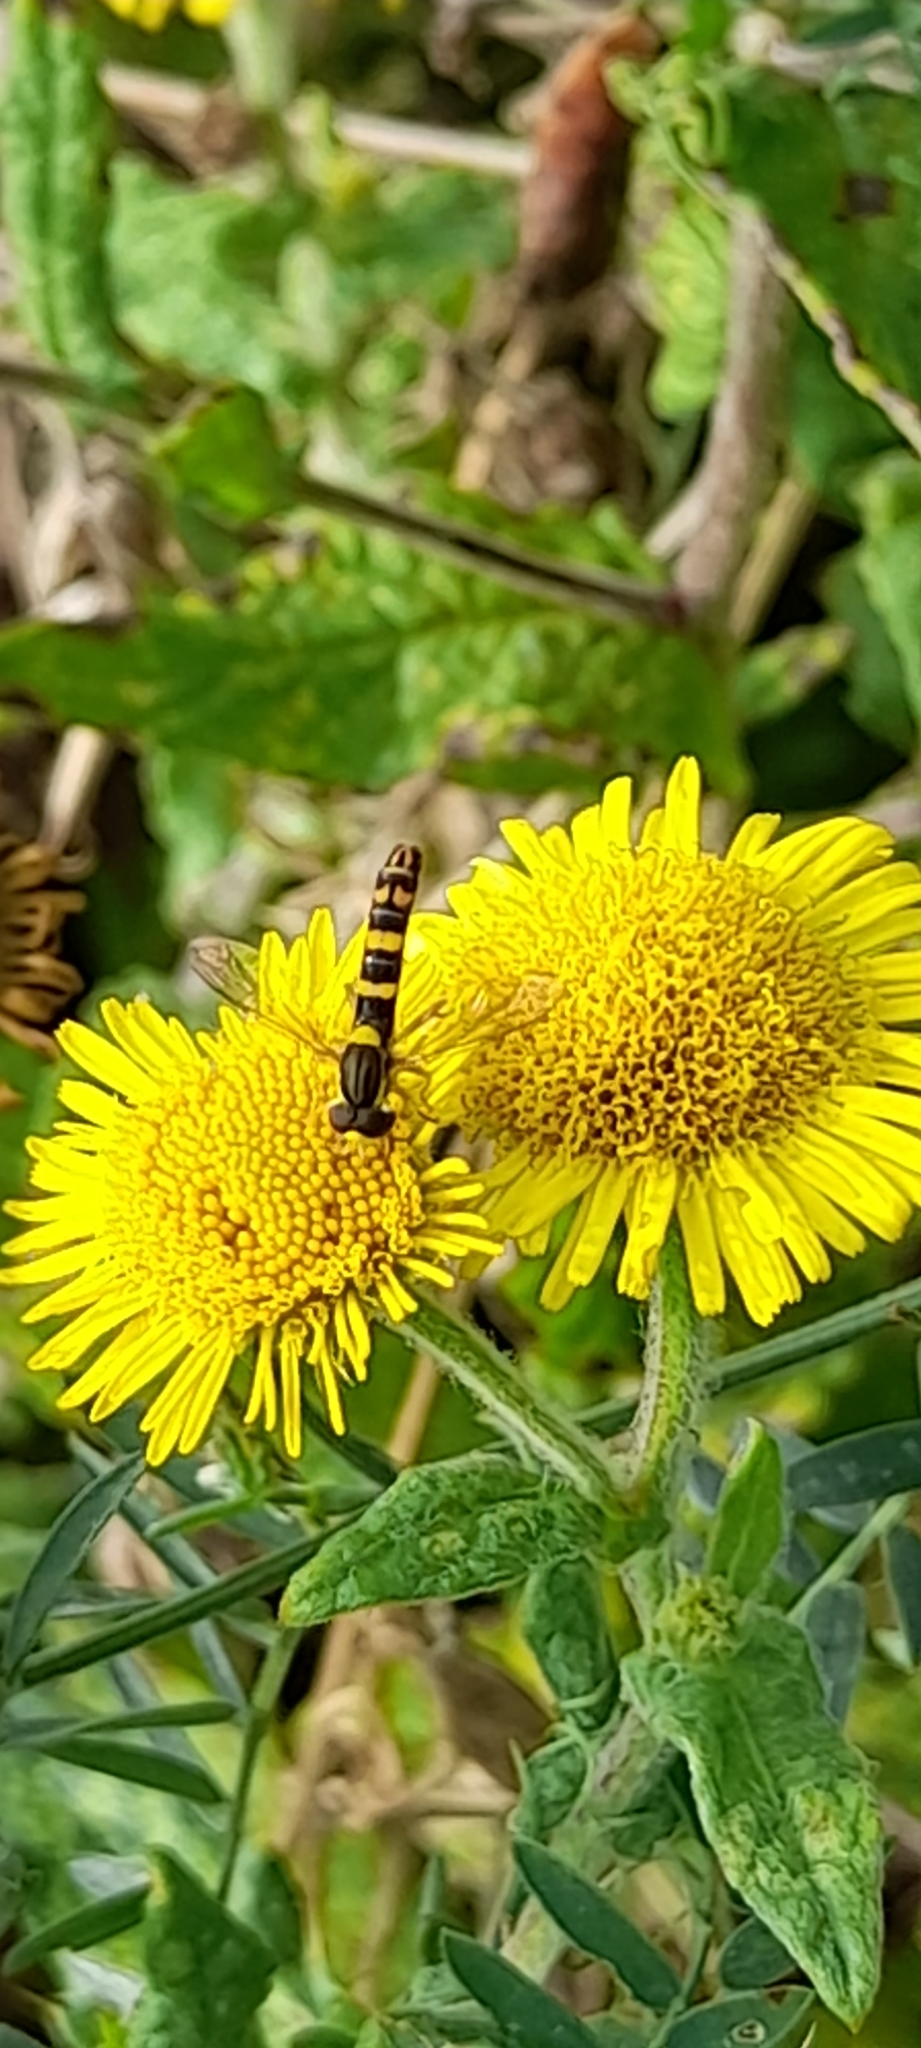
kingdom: Animalia
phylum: Arthropoda
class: Insecta
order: Diptera
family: Syrphidae
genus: Sphaerophoria
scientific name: Sphaerophoria scripta
